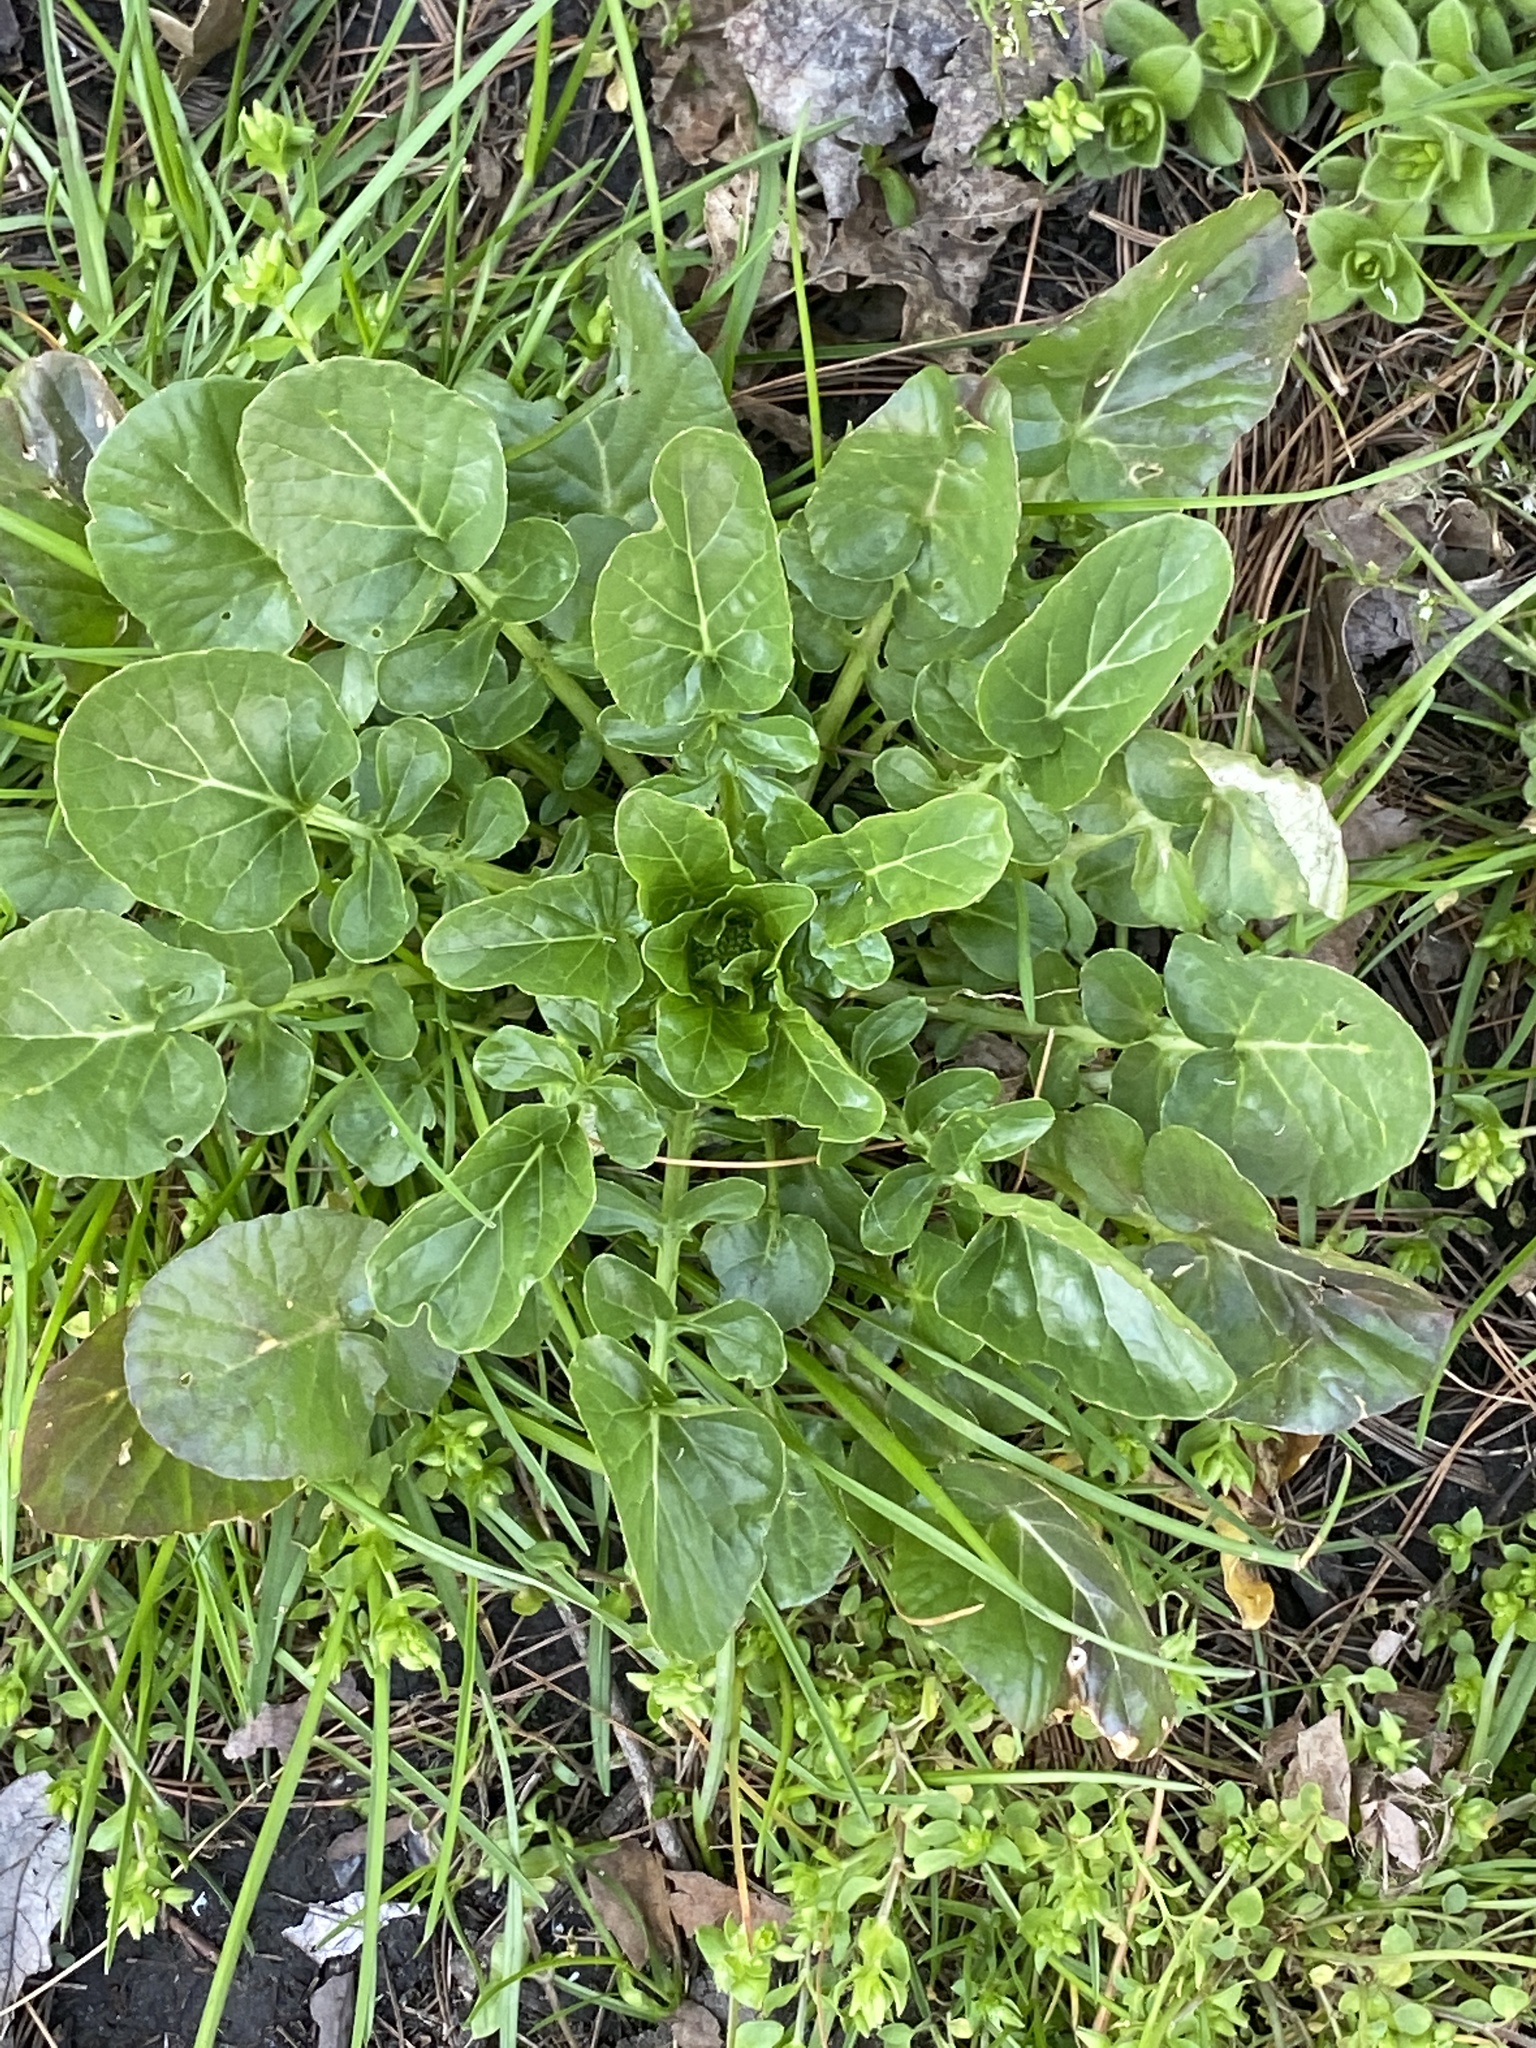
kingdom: Plantae
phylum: Tracheophyta
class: Magnoliopsida
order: Brassicales
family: Brassicaceae
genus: Barbarea
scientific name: Barbarea vulgaris
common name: Cressy-greens
